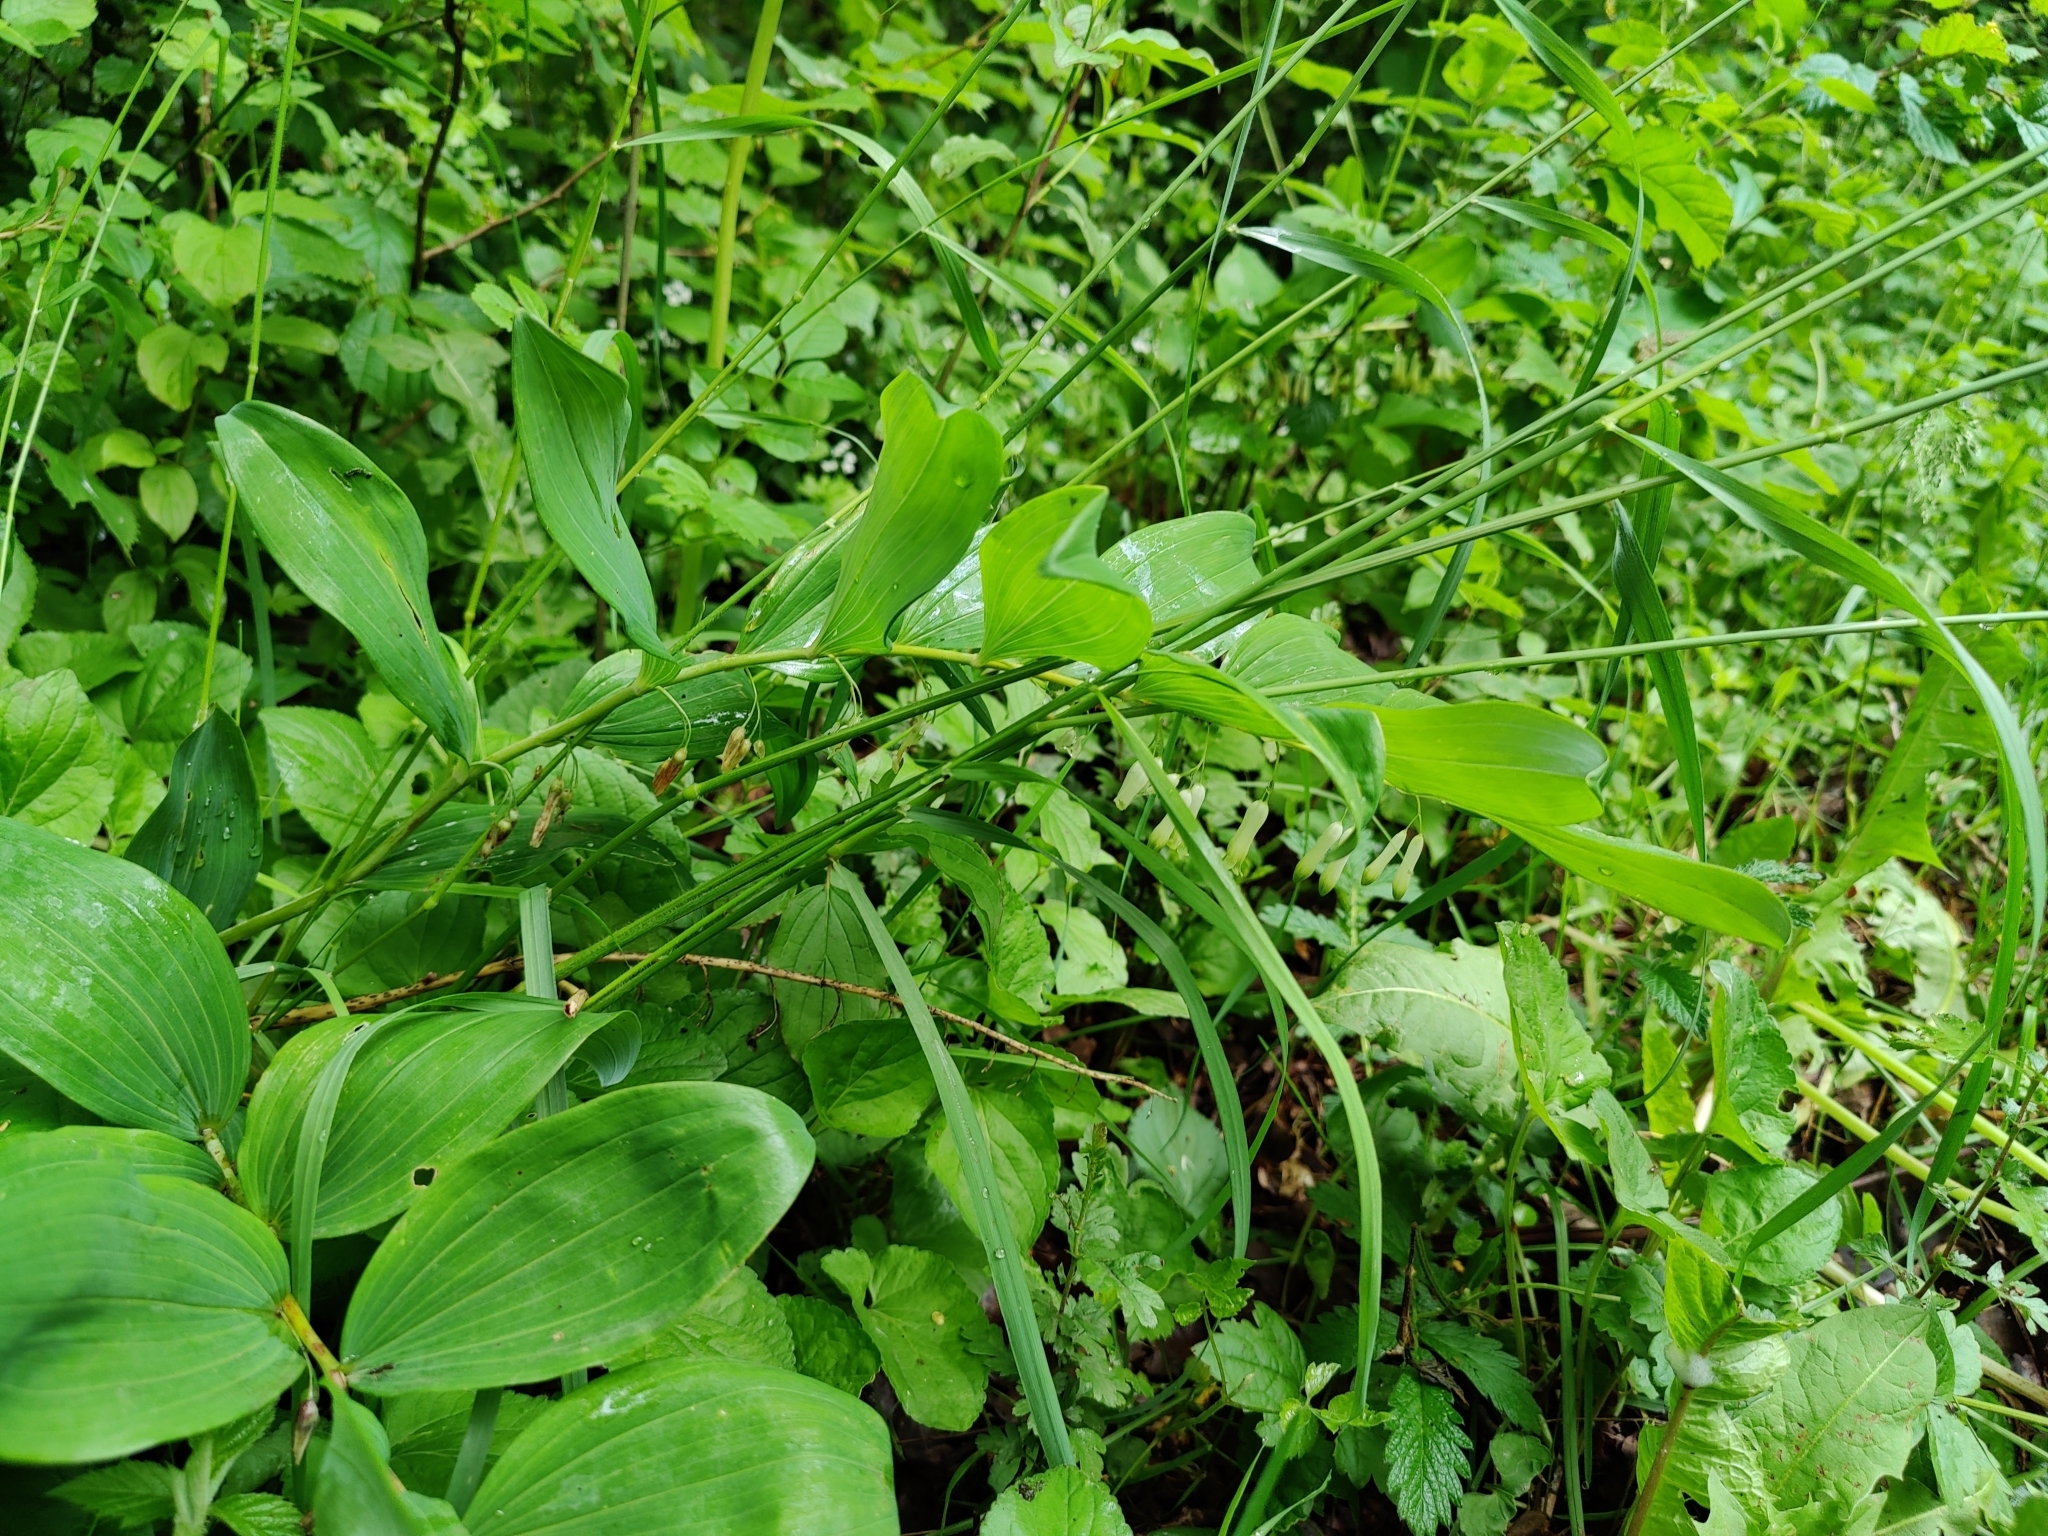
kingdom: Plantae
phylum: Tracheophyta
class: Liliopsida
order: Asparagales
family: Asparagaceae
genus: Polygonatum
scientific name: Polygonatum multiflorum
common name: Solomon's-seal
